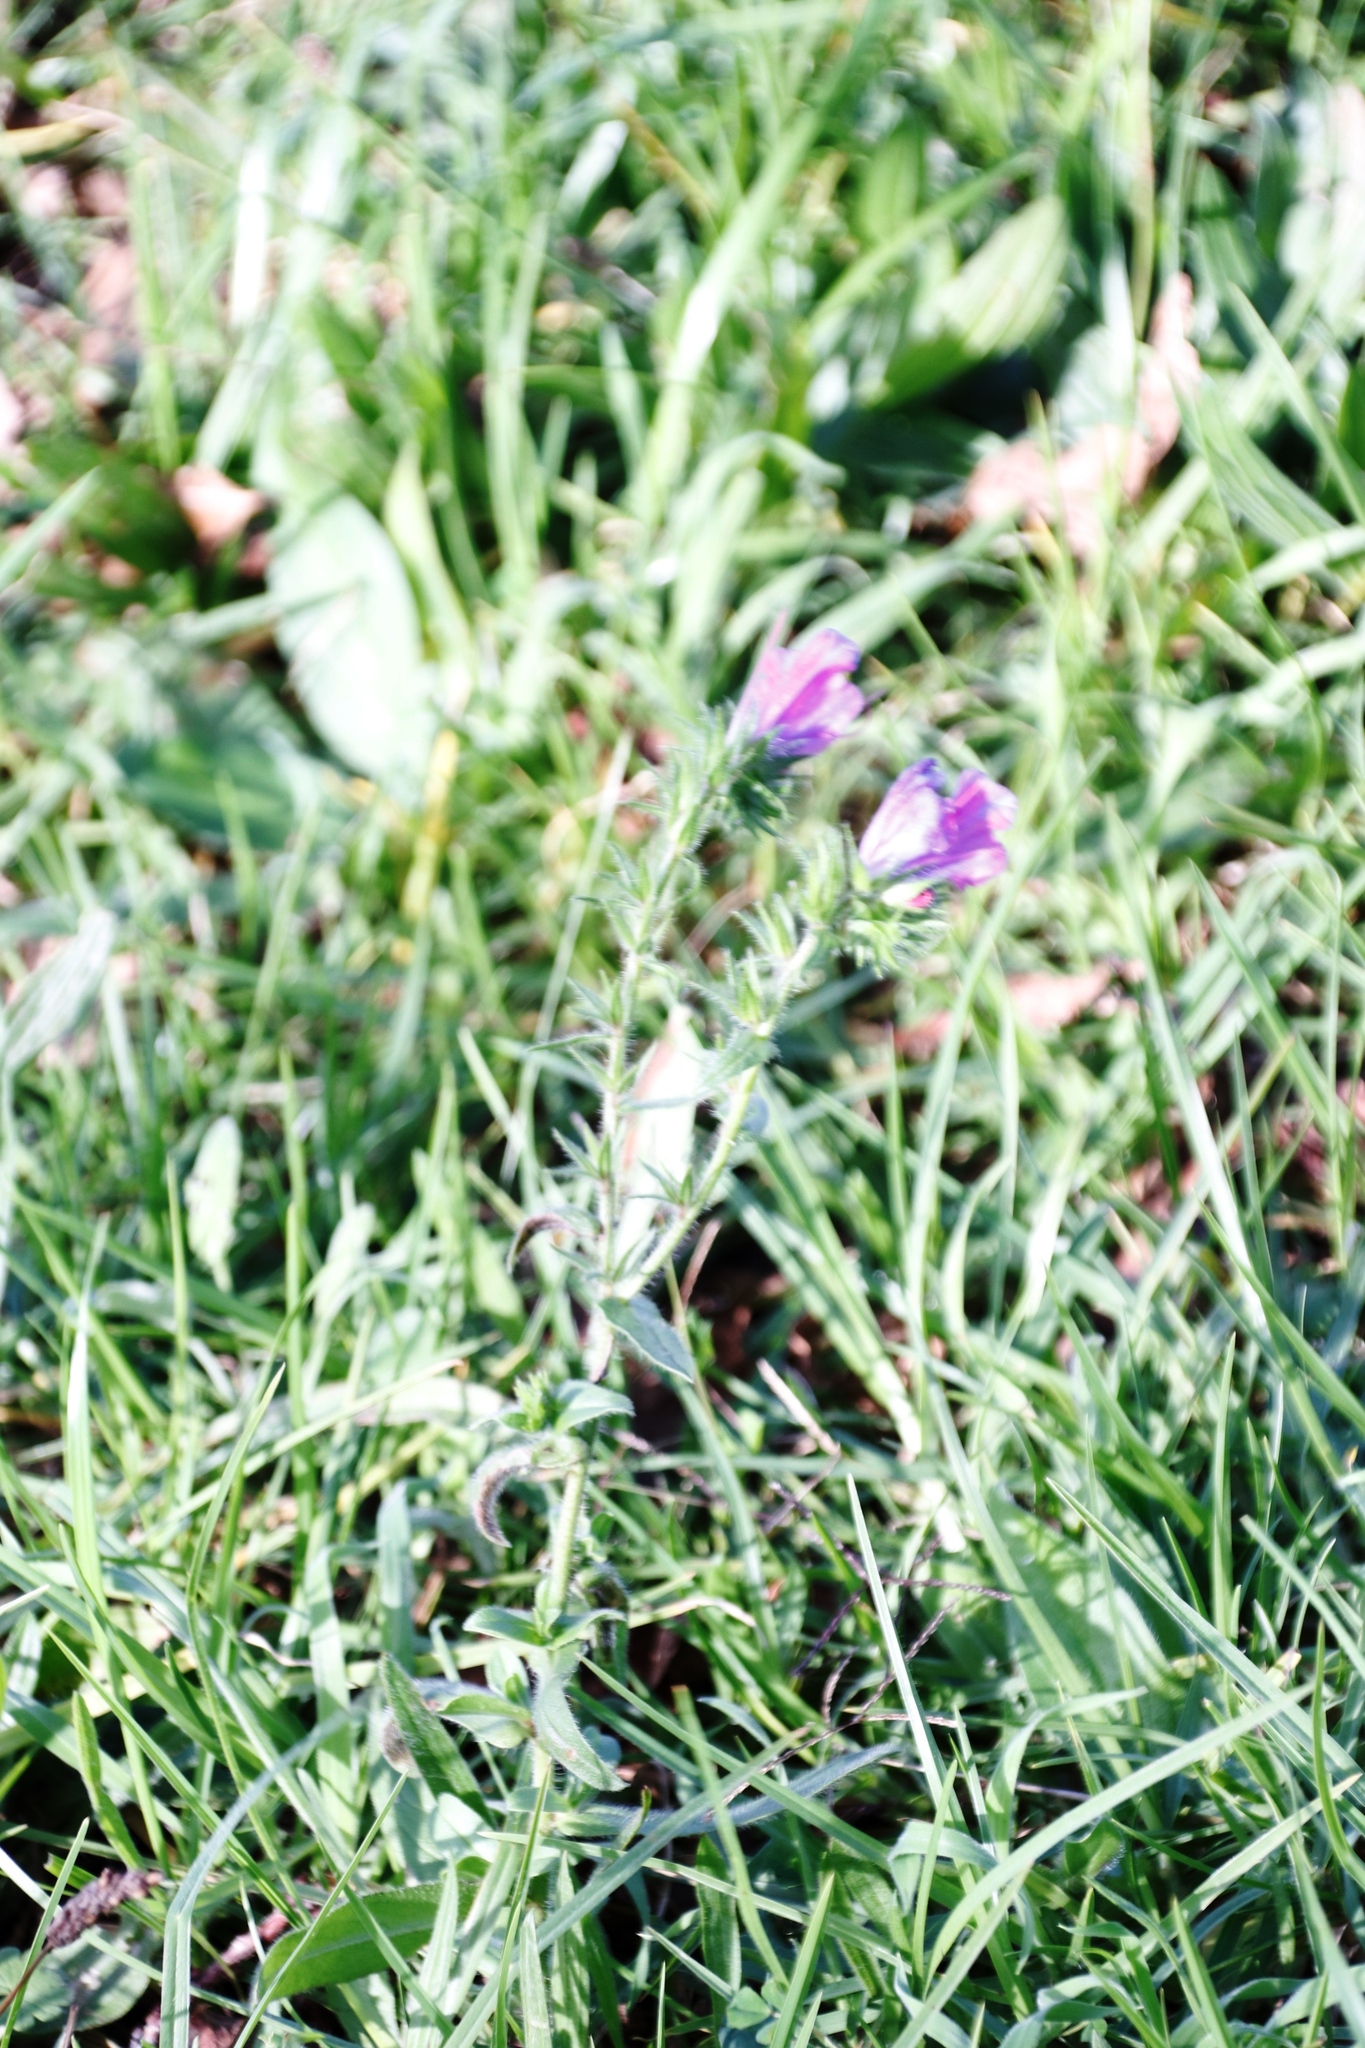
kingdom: Plantae
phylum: Tracheophyta
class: Magnoliopsida
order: Boraginales
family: Boraginaceae
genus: Echium
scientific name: Echium plantagineum
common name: Purple viper's-bugloss
